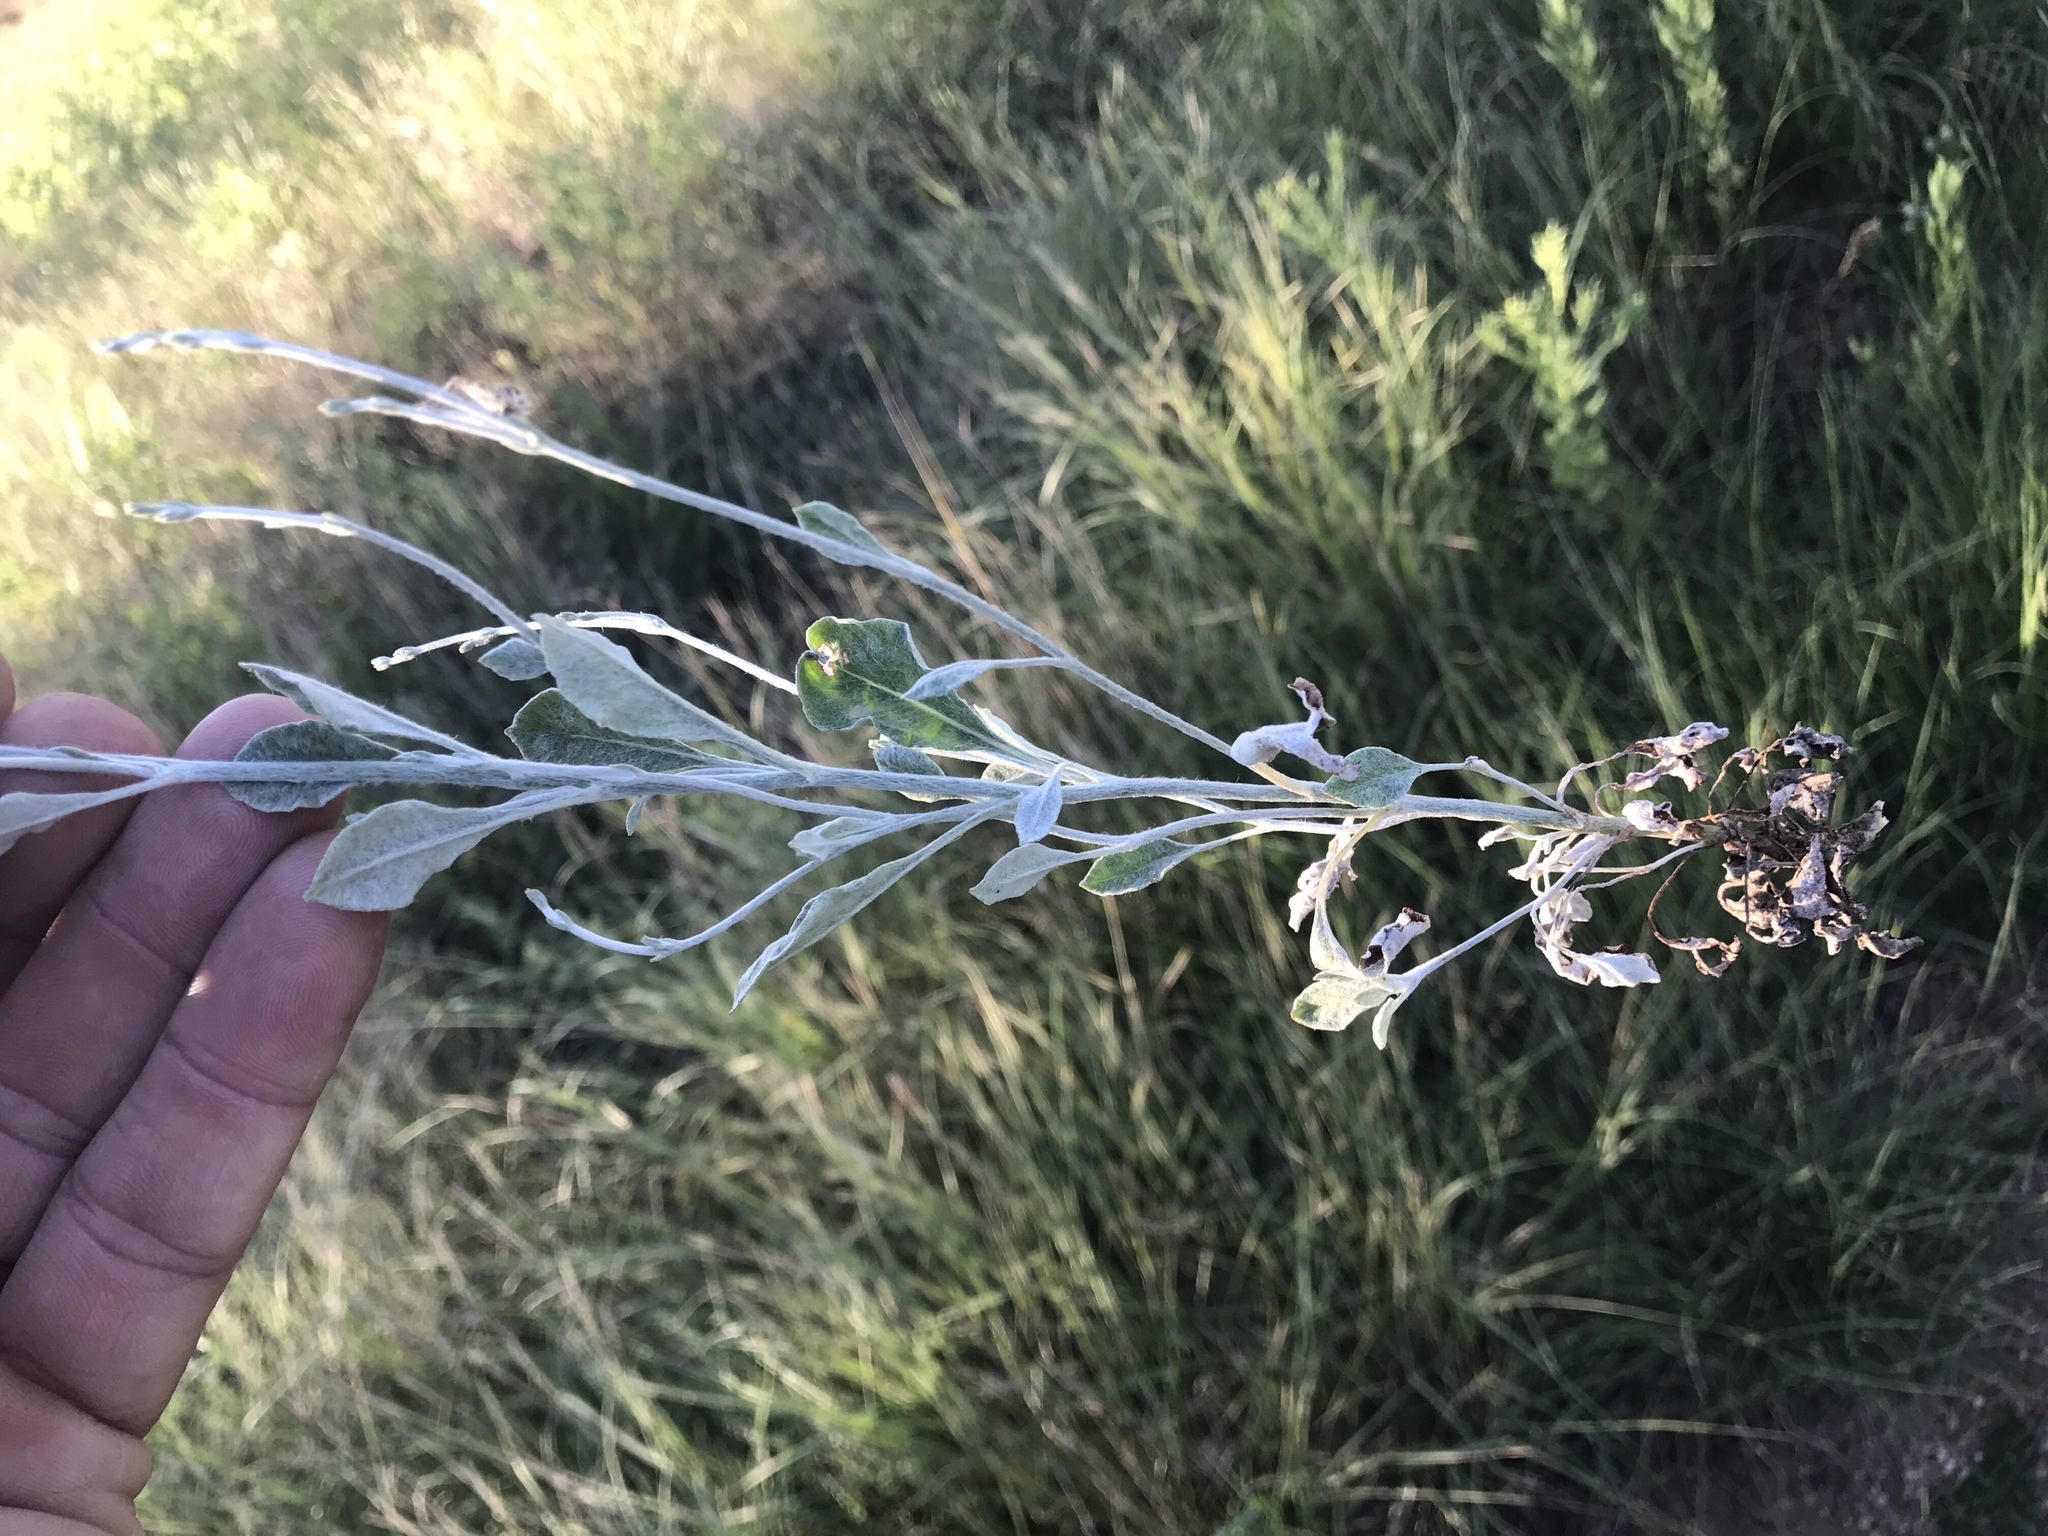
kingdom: Plantae
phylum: Tracheophyta
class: Magnoliopsida
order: Caryophyllales
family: Polygonaceae
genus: Eriogonum
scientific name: Eriogonum wrightii
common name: Bastard-sage
